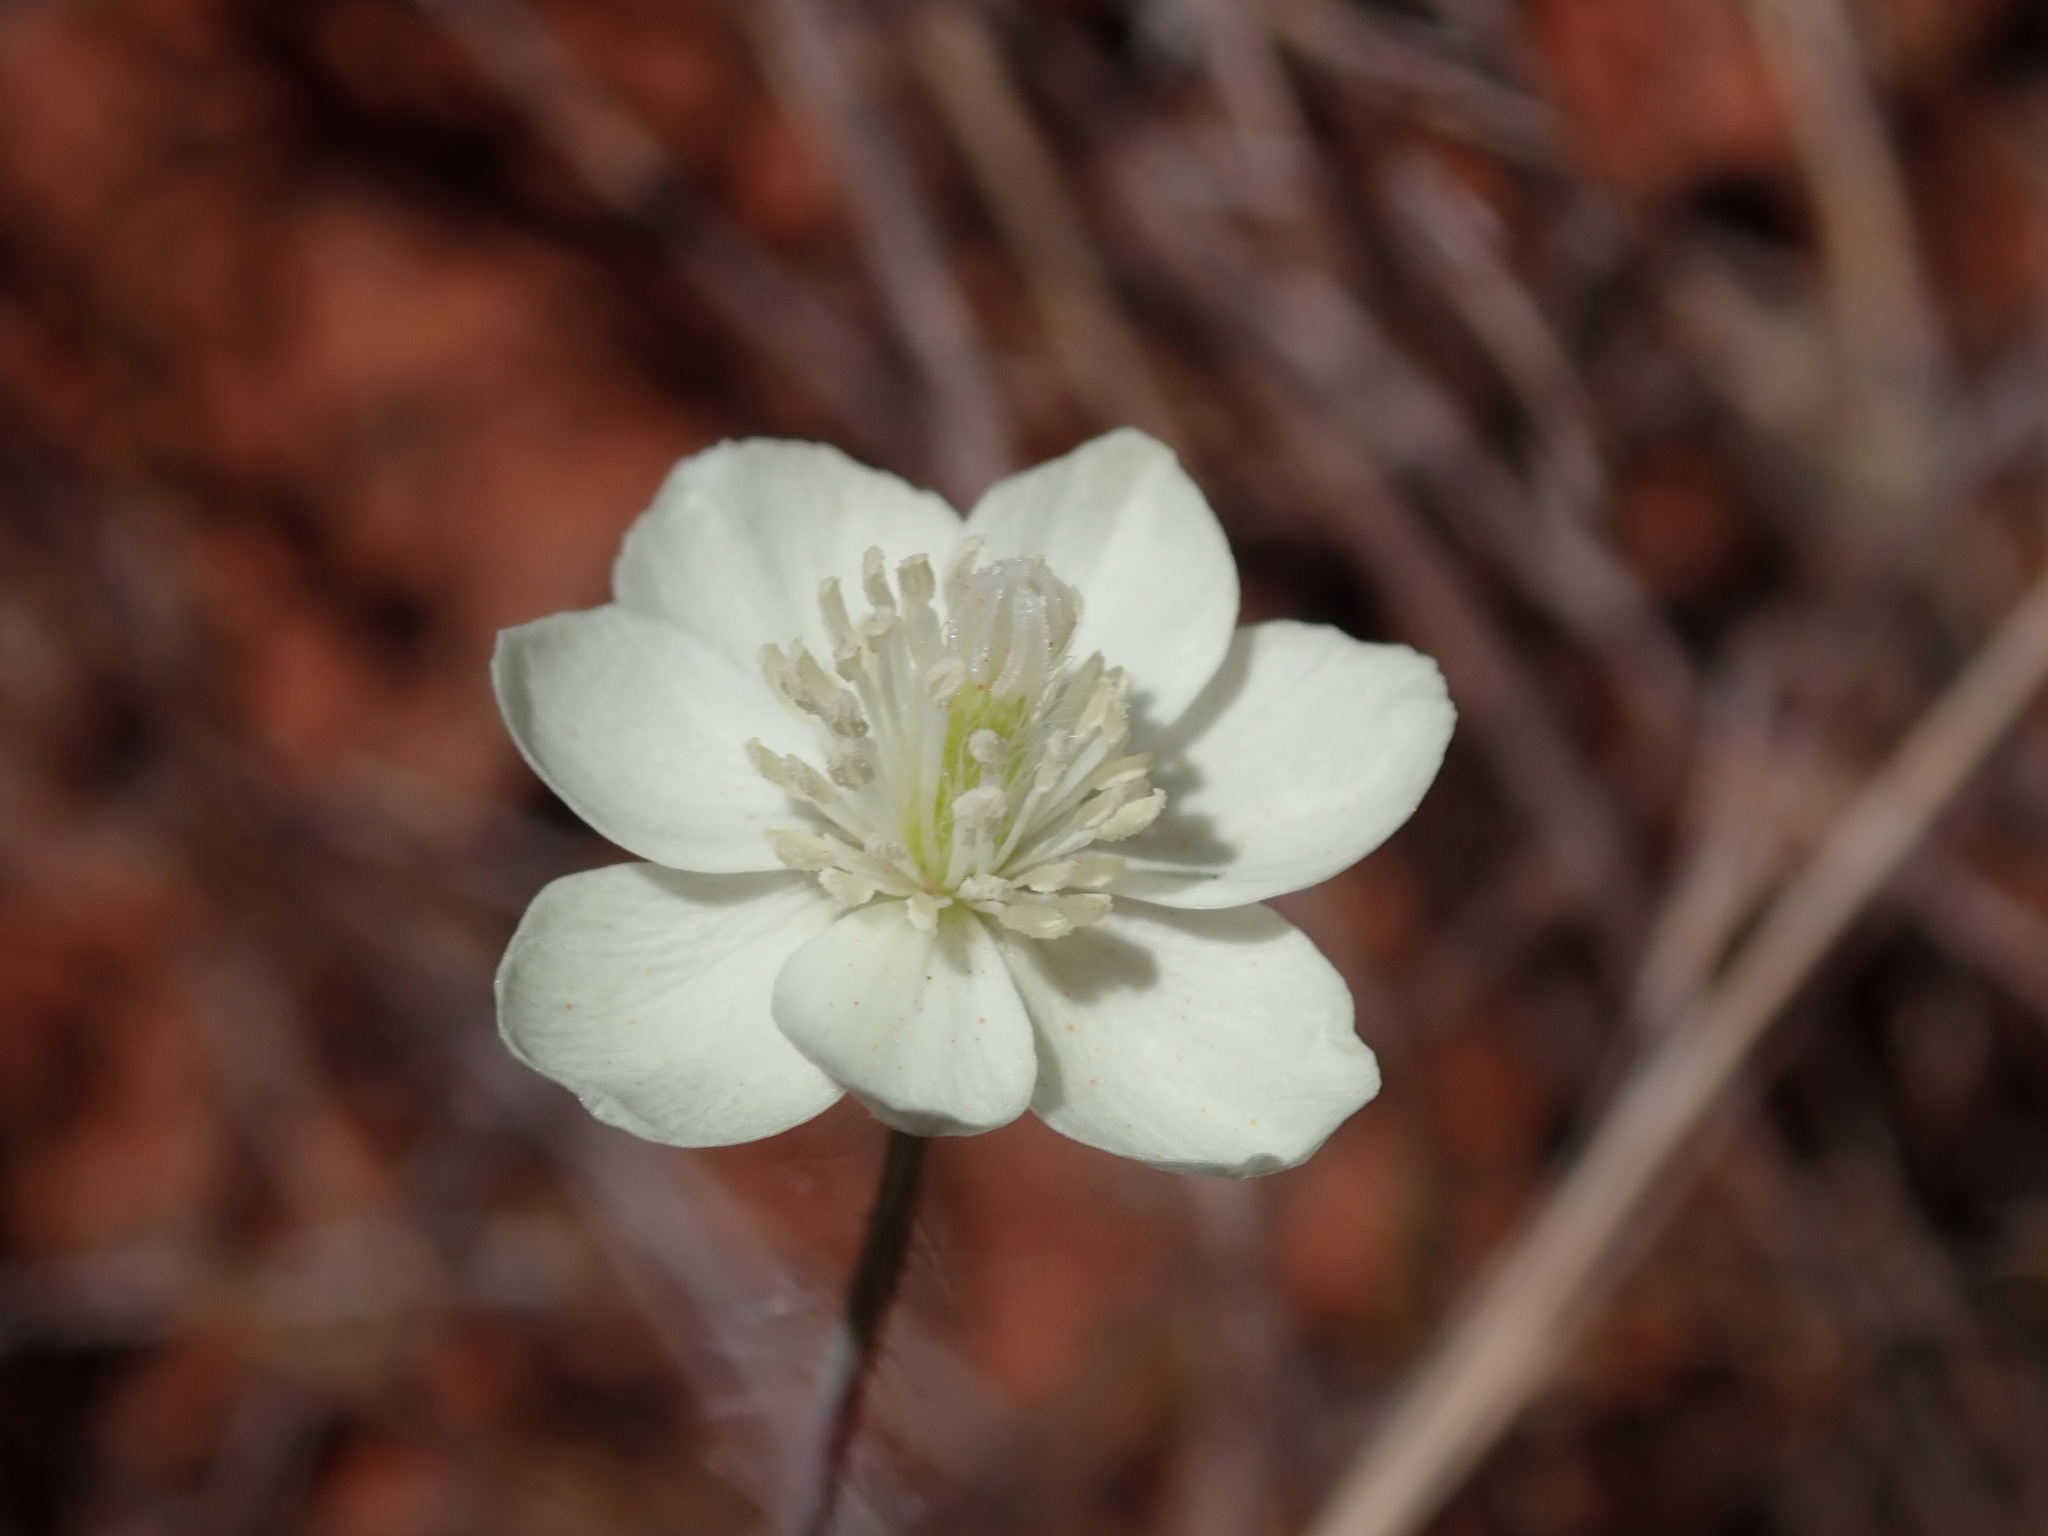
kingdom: Plantae
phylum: Tracheophyta
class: Magnoliopsida
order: Ranunculales
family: Papaveraceae
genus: Platystemon
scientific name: Platystemon californicus
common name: Cream-cups
